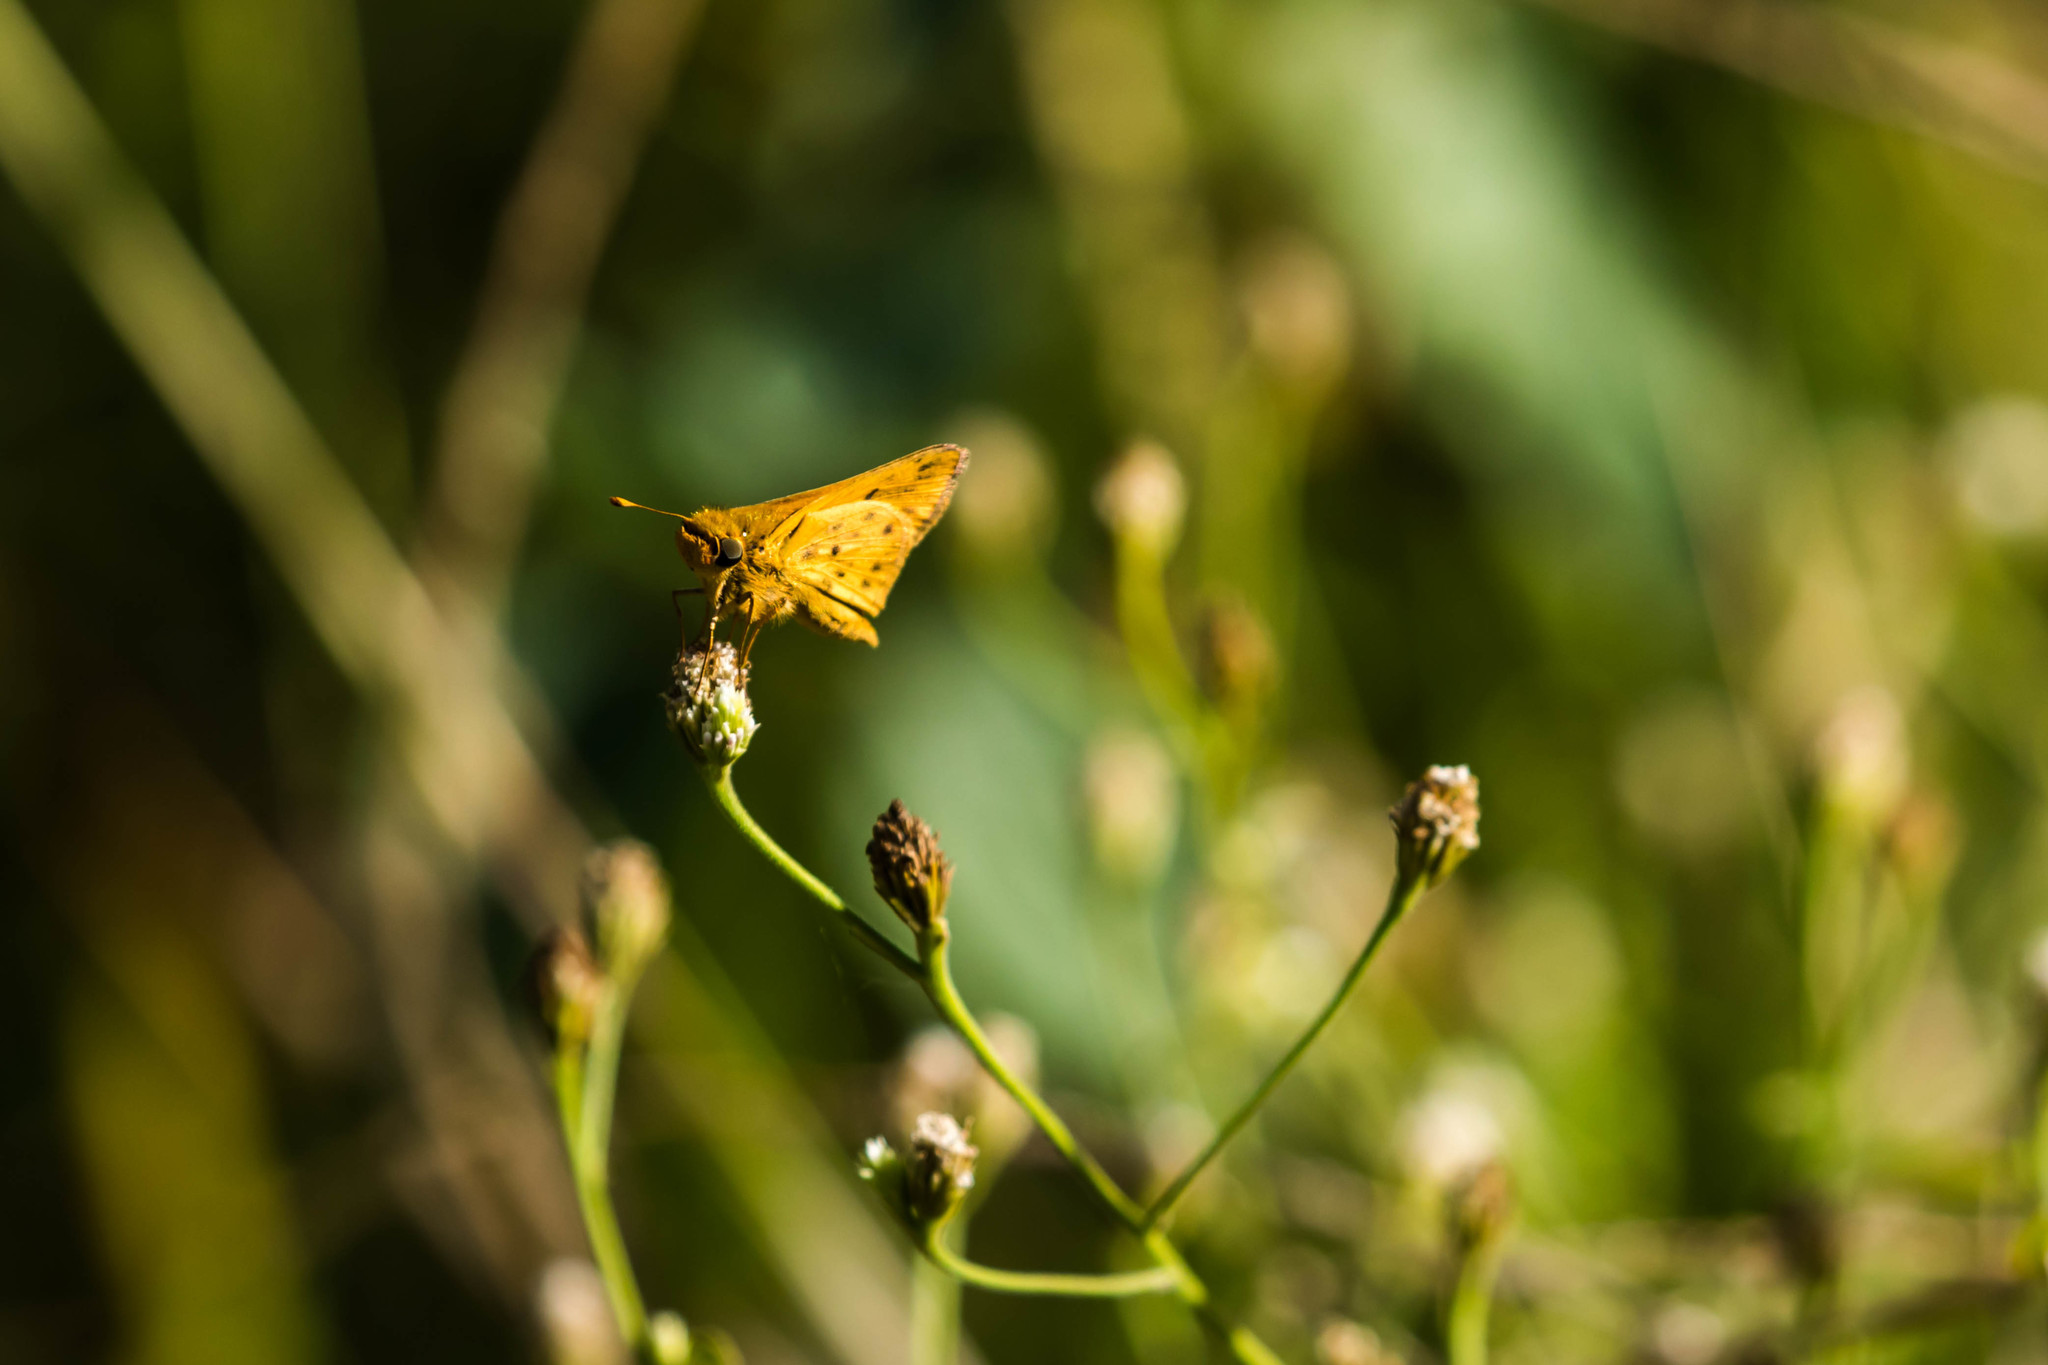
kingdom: Animalia
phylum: Arthropoda
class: Insecta
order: Lepidoptera
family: Hesperiidae
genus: Hylephila
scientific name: Hylephila phyleus
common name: Fiery skipper
